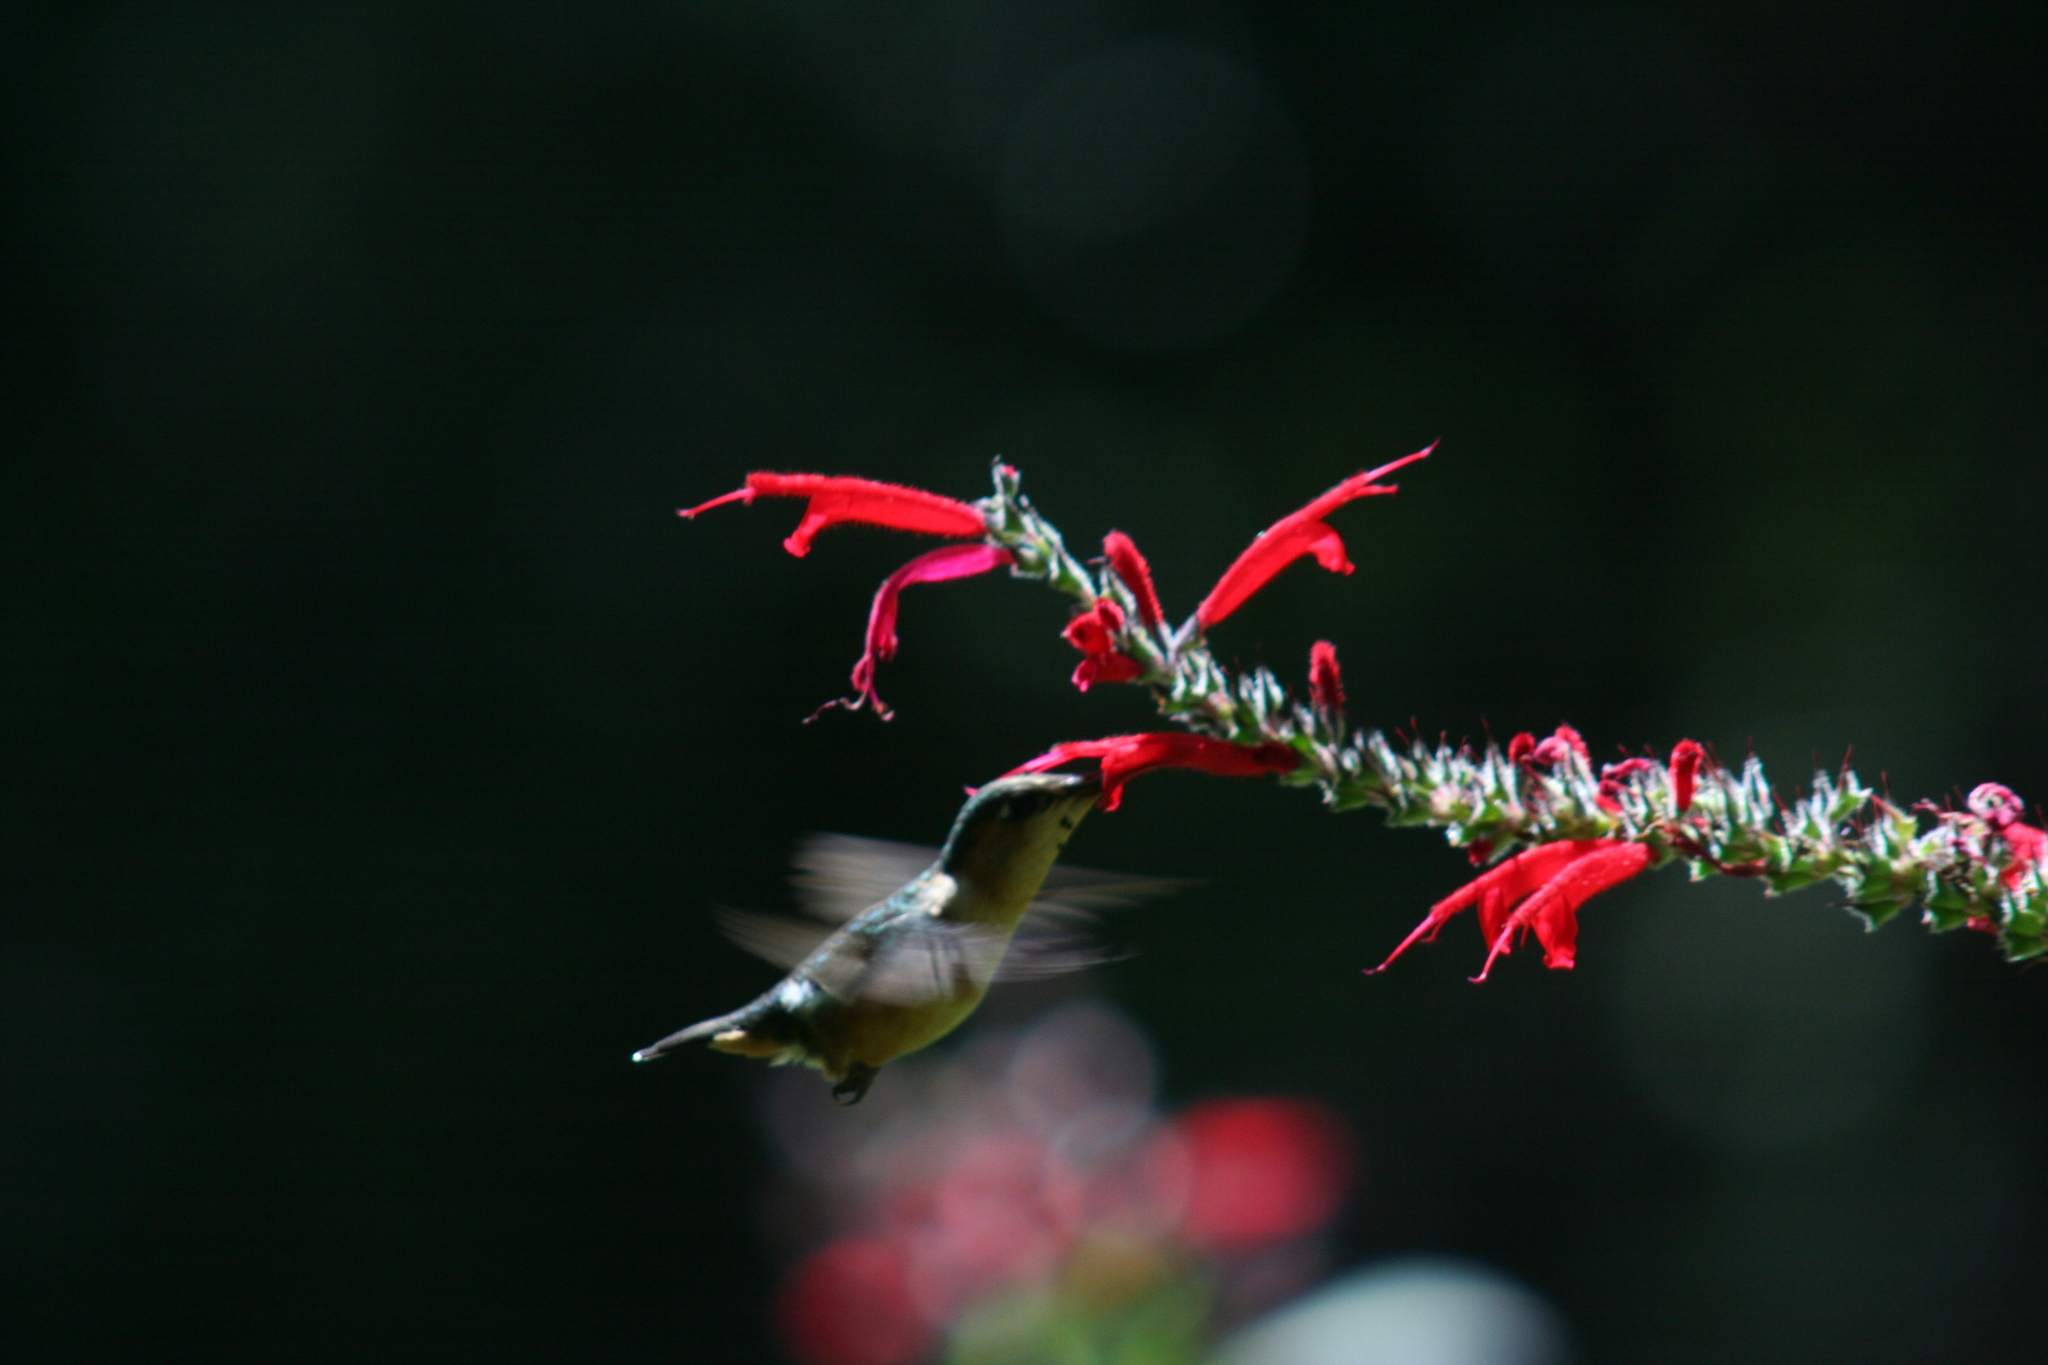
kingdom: Animalia
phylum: Chordata
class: Aves
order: Apodiformes
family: Trochilidae
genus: Tilmatura
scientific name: Tilmatura dupontii
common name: Sparkling-tailed woodstar
